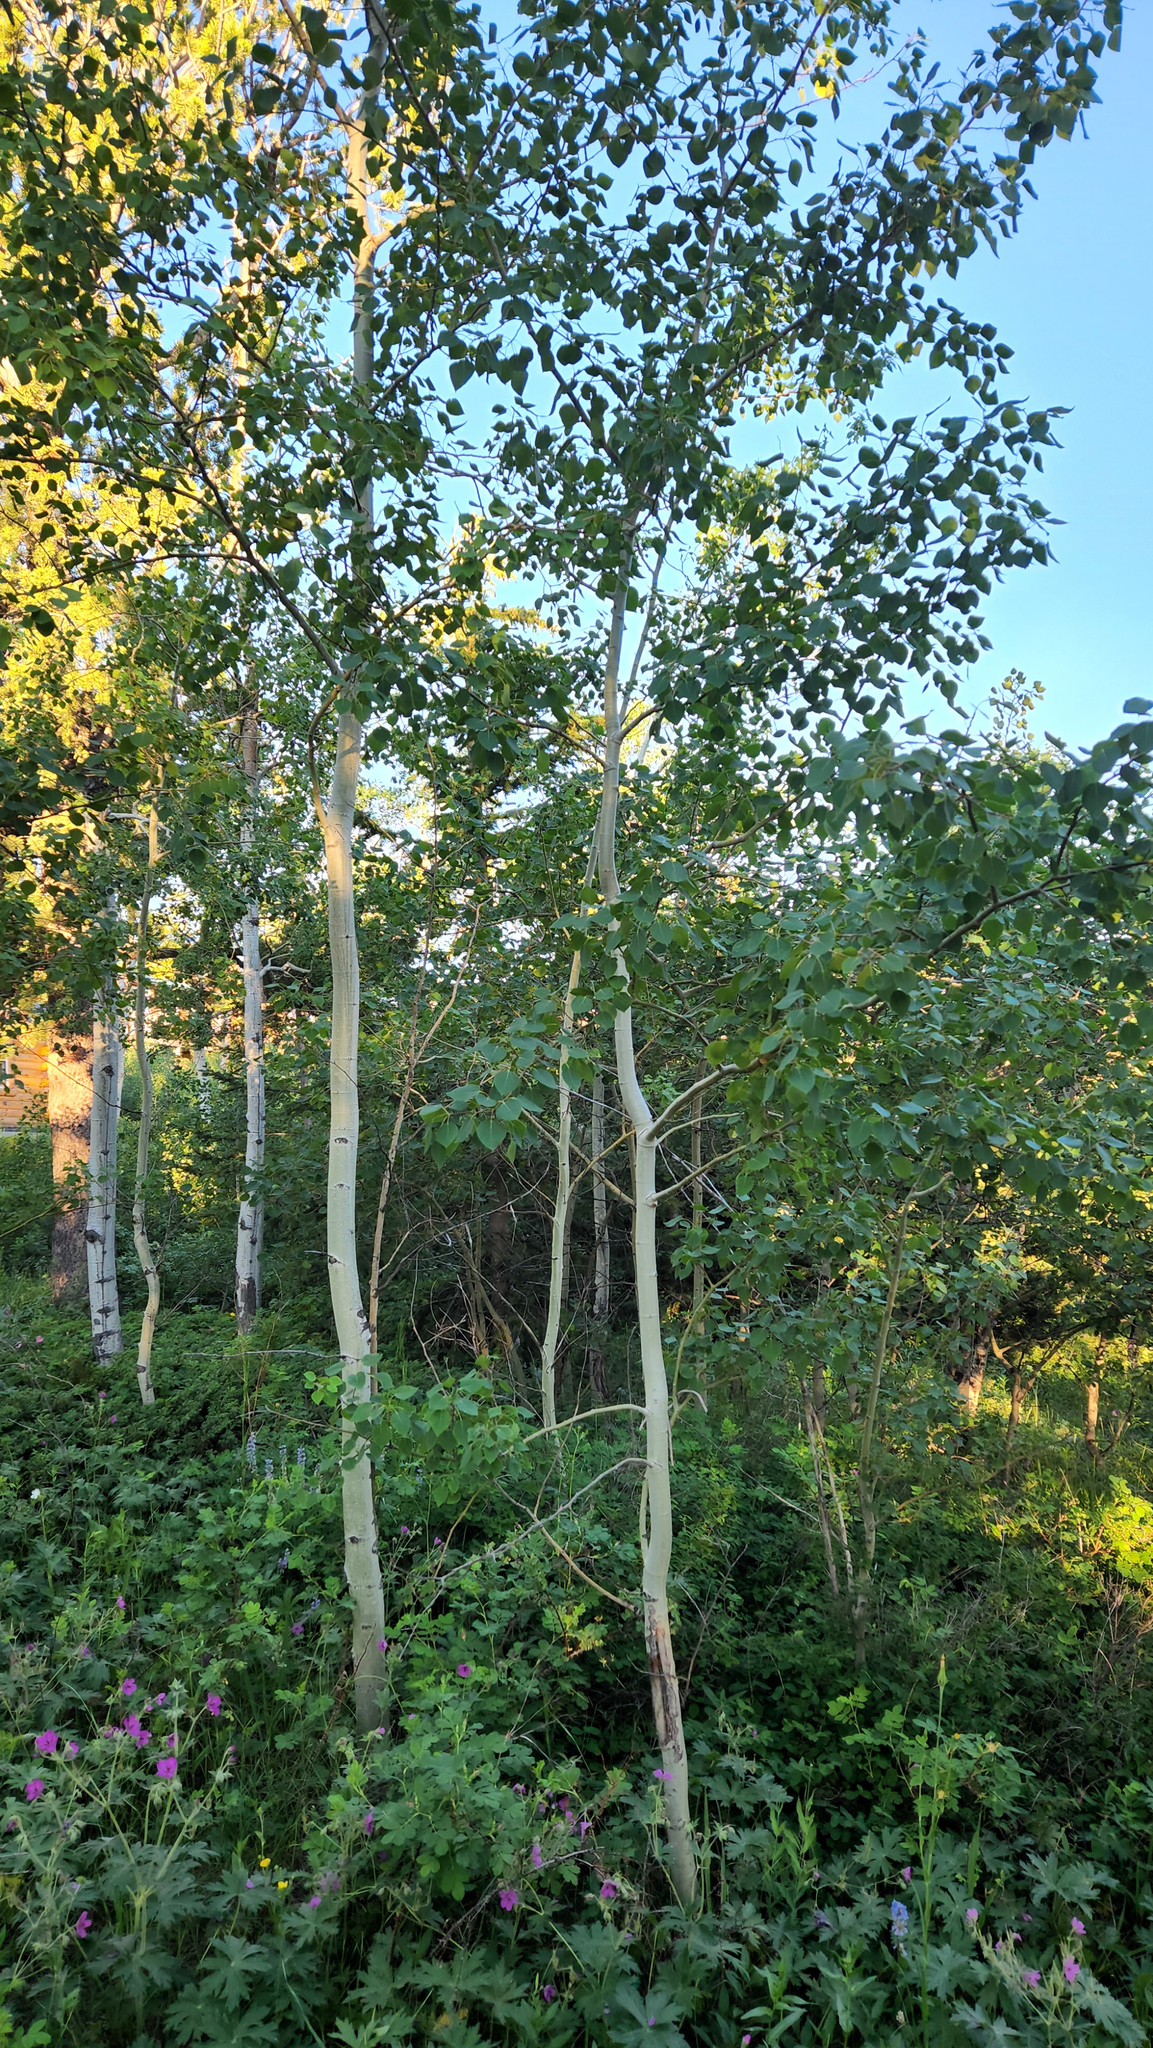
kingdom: Plantae
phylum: Tracheophyta
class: Magnoliopsida
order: Malpighiales
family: Salicaceae
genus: Populus
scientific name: Populus tremuloides
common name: Quaking aspen
